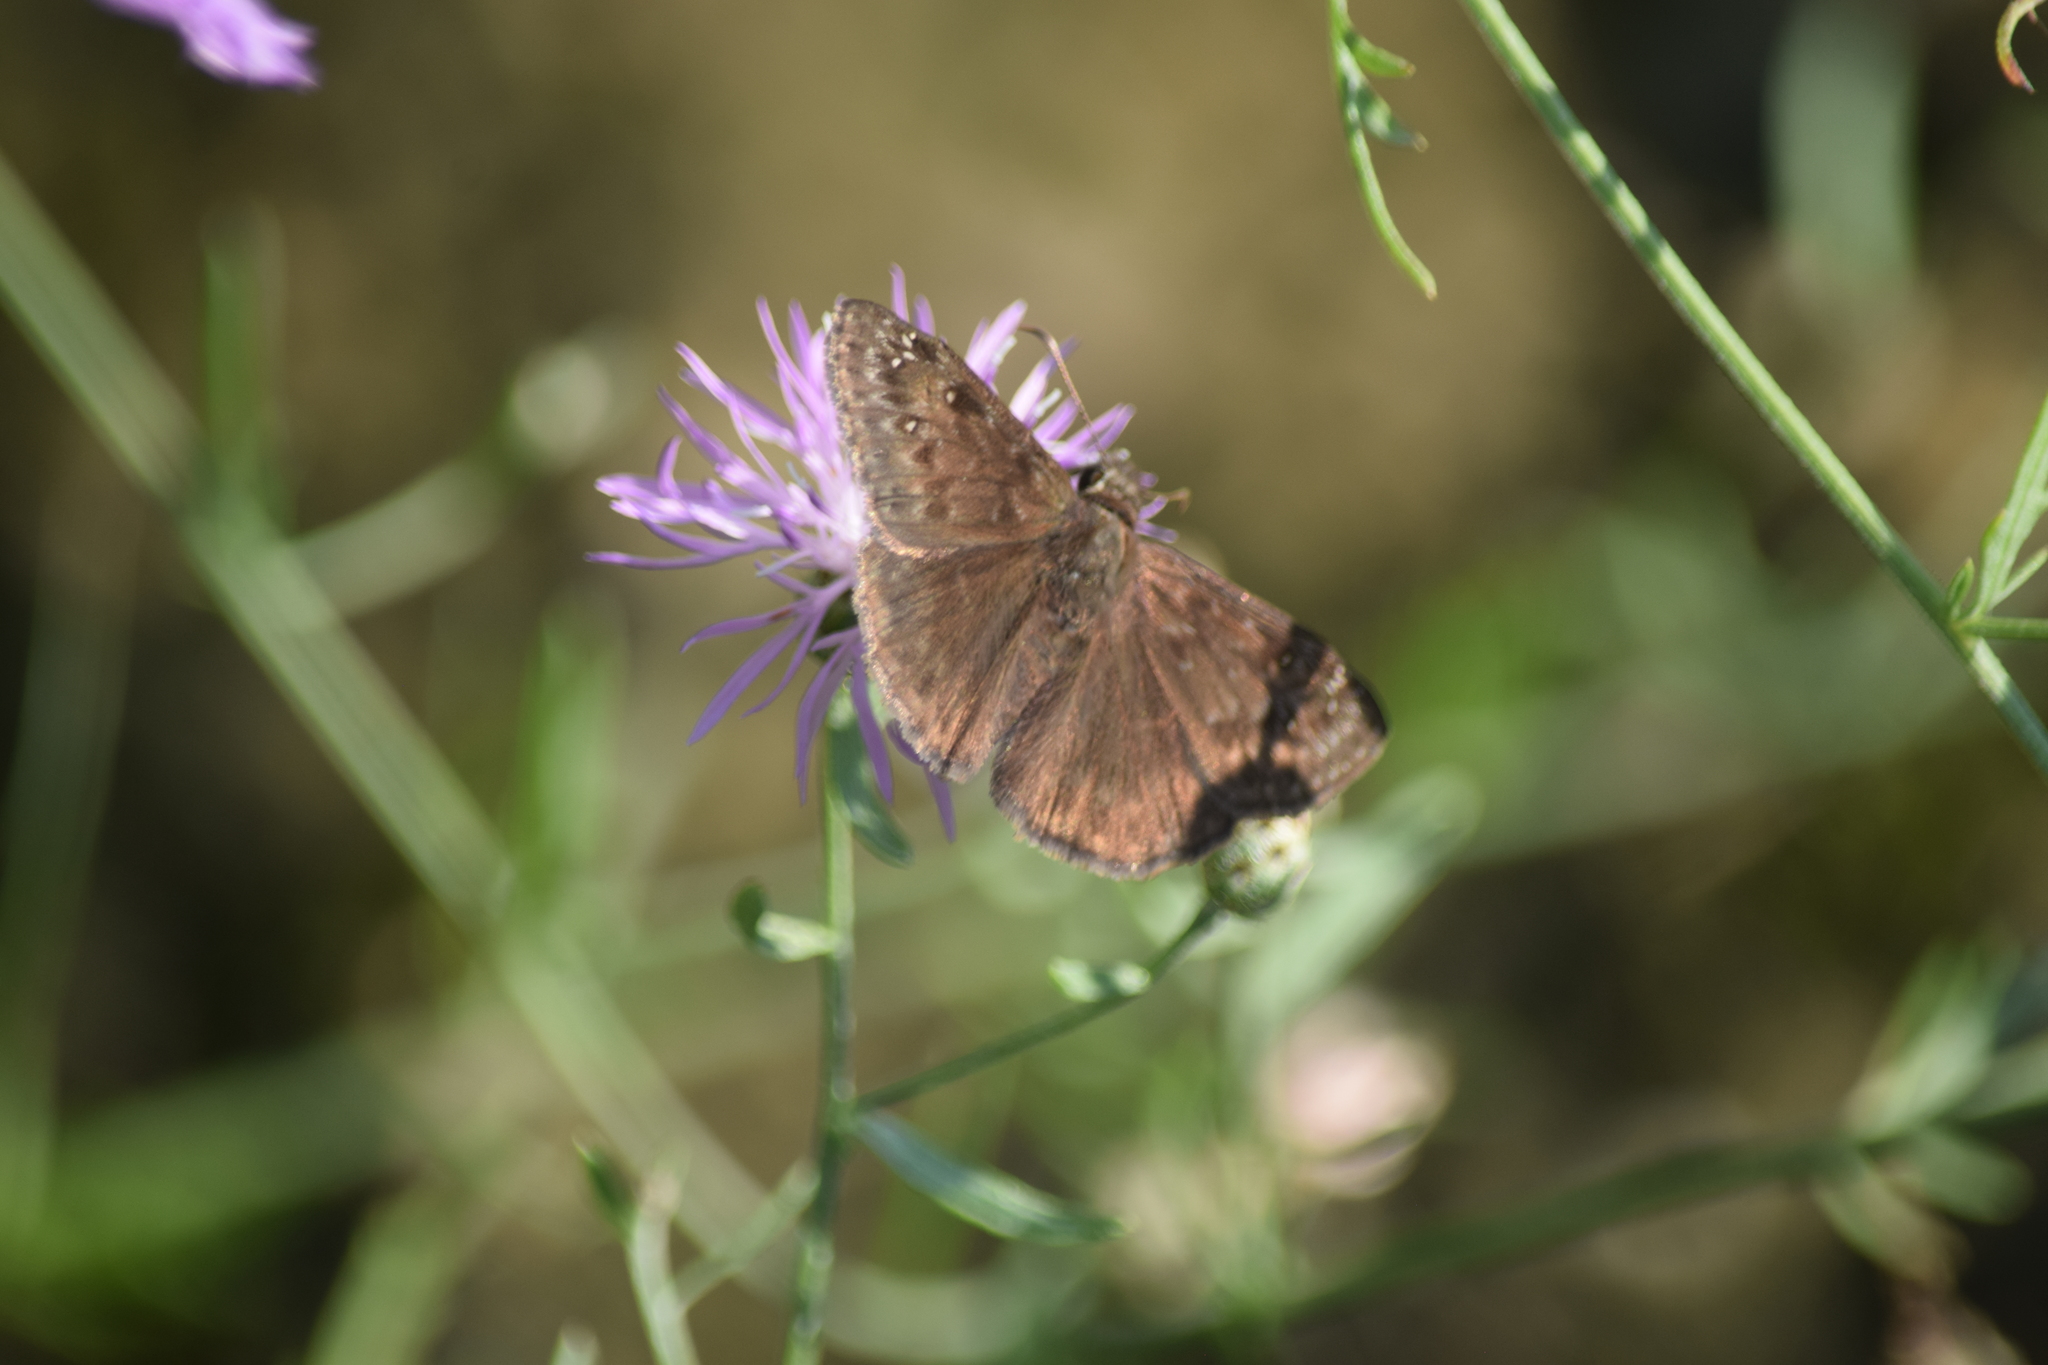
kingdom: Animalia
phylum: Arthropoda
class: Insecta
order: Lepidoptera
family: Hesperiidae
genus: Erynnis
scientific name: Erynnis horatius
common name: Horace's duskywing
